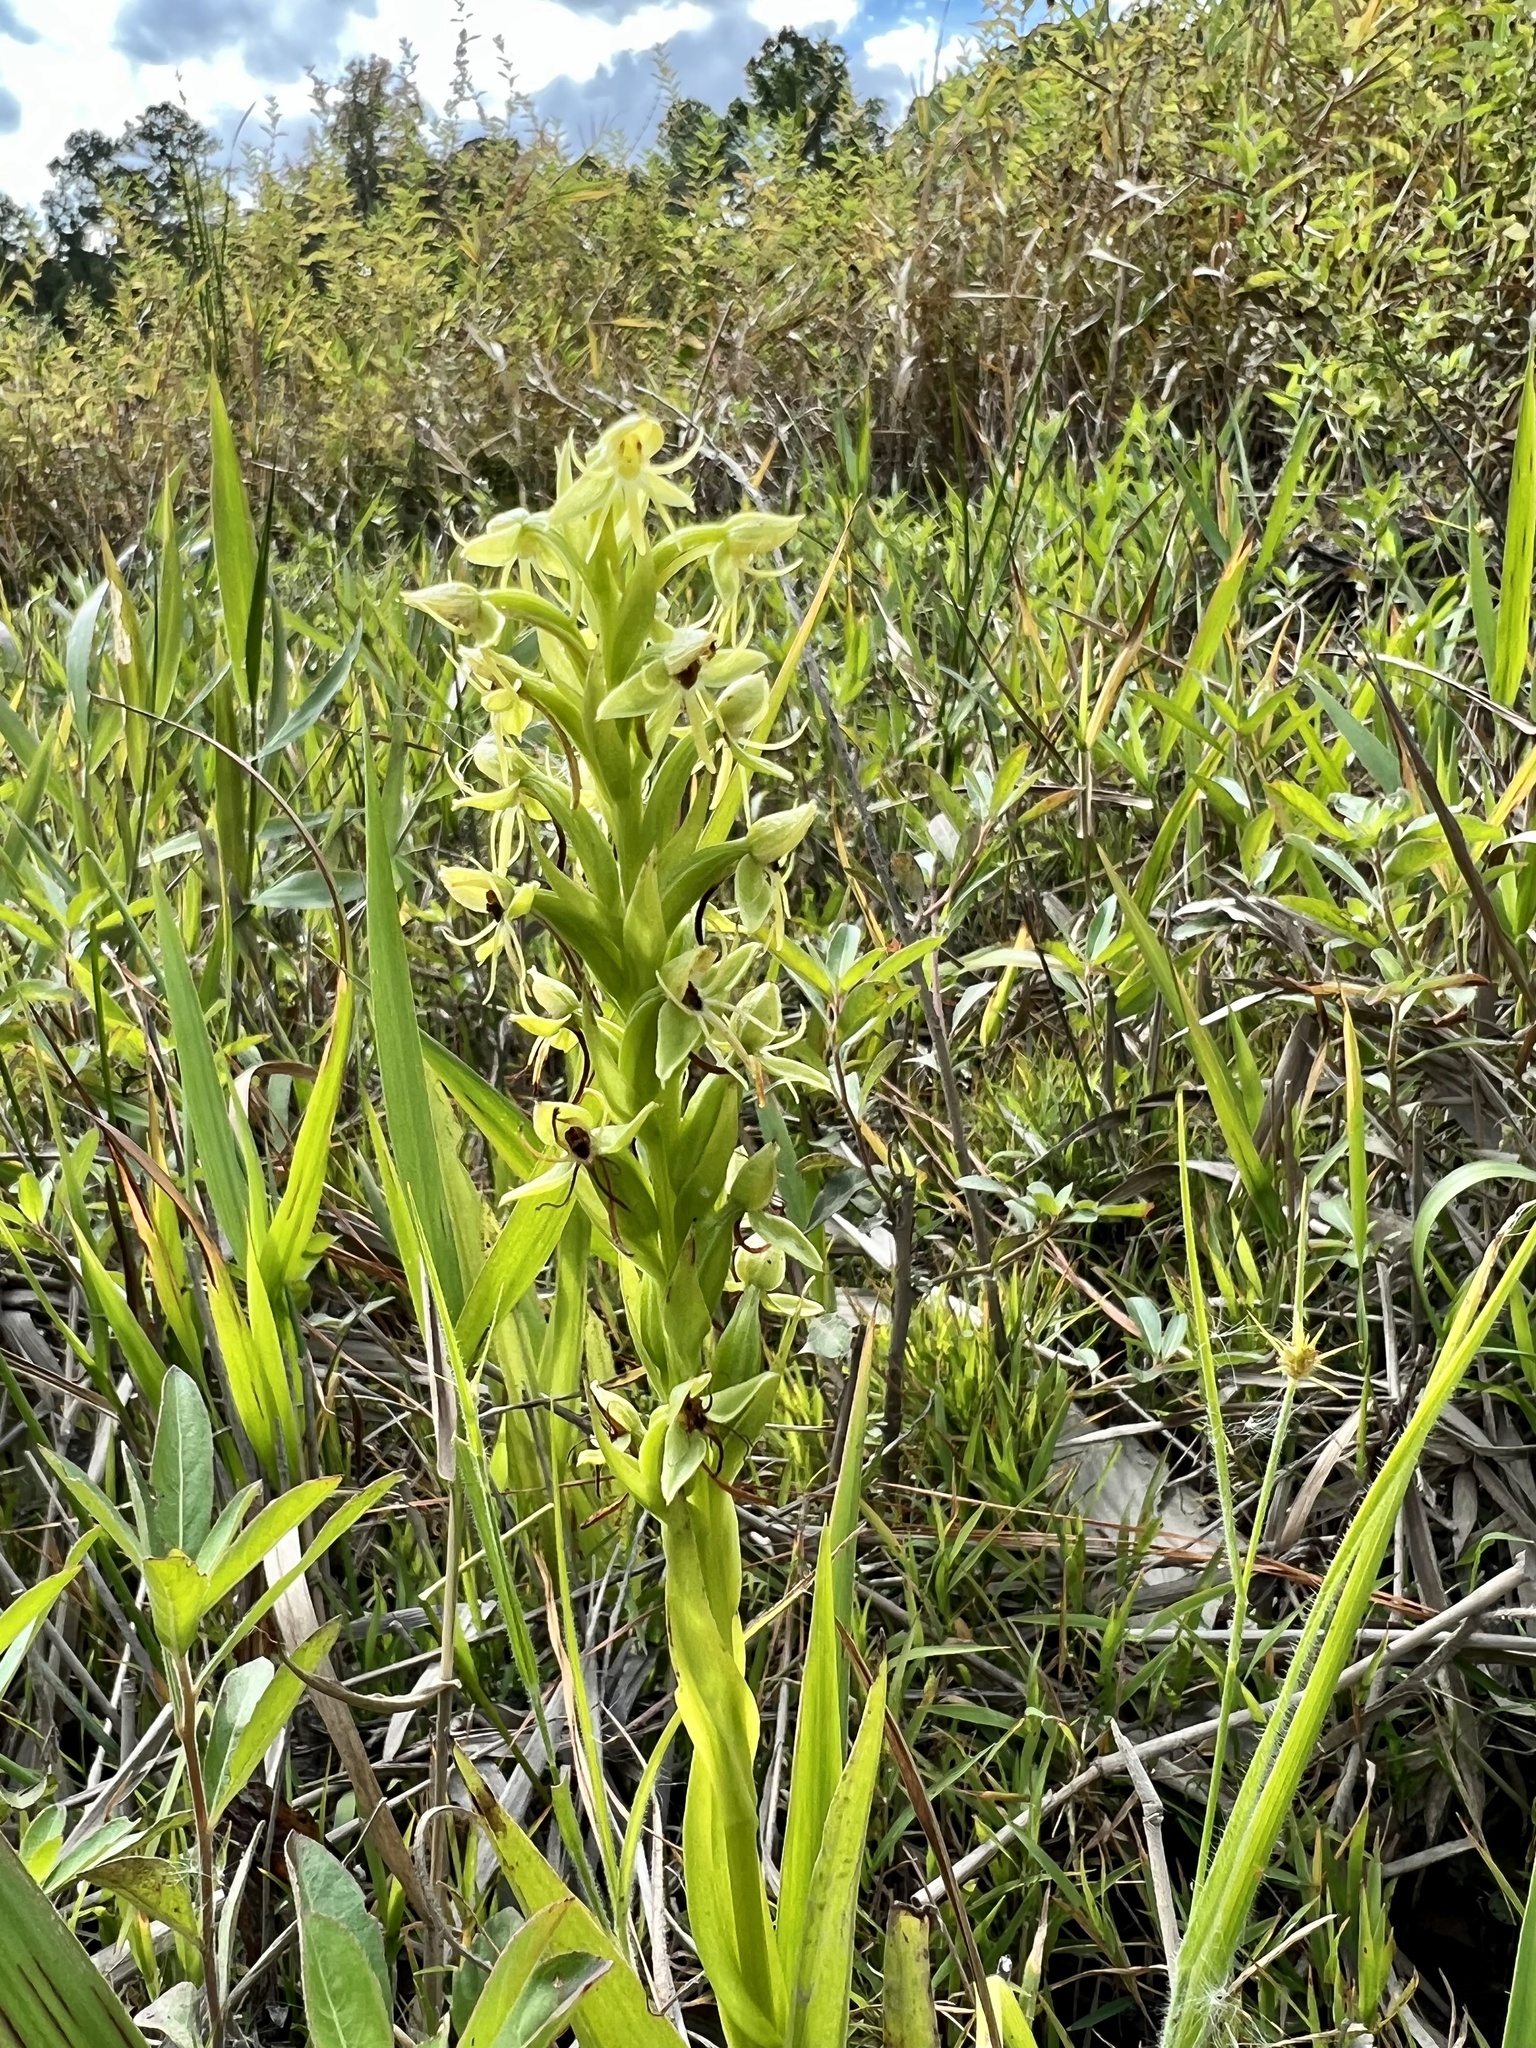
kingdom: Plantae
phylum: Tracheophyta
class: Liliopsida
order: Asparagales
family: Orchidaceae
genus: Habenaria
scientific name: Habenaria repens
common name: Water orchid
